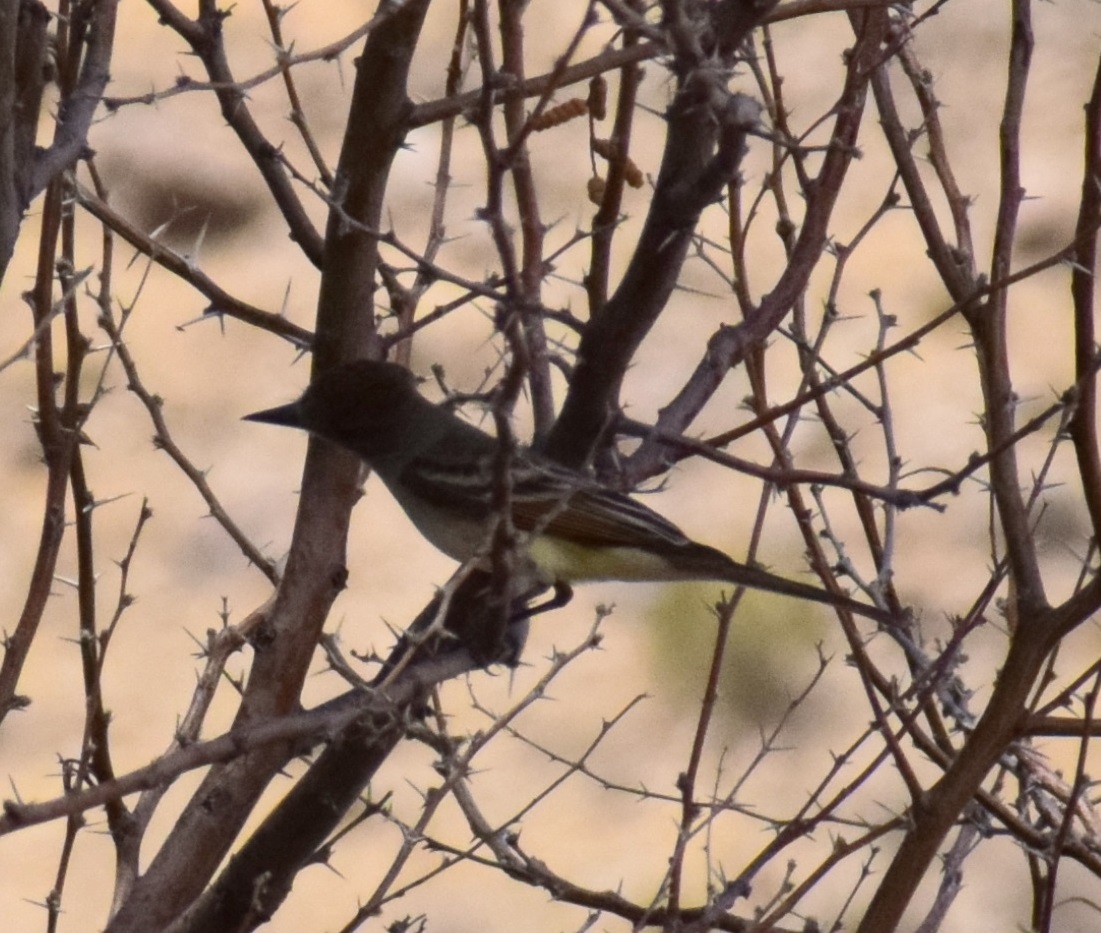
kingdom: Animalia
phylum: Chordata
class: Aves
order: Passeriformes
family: Tyrannidae
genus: Myiarchus
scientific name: Myiarchus cinerascens
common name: Ash-throated flycatcher
